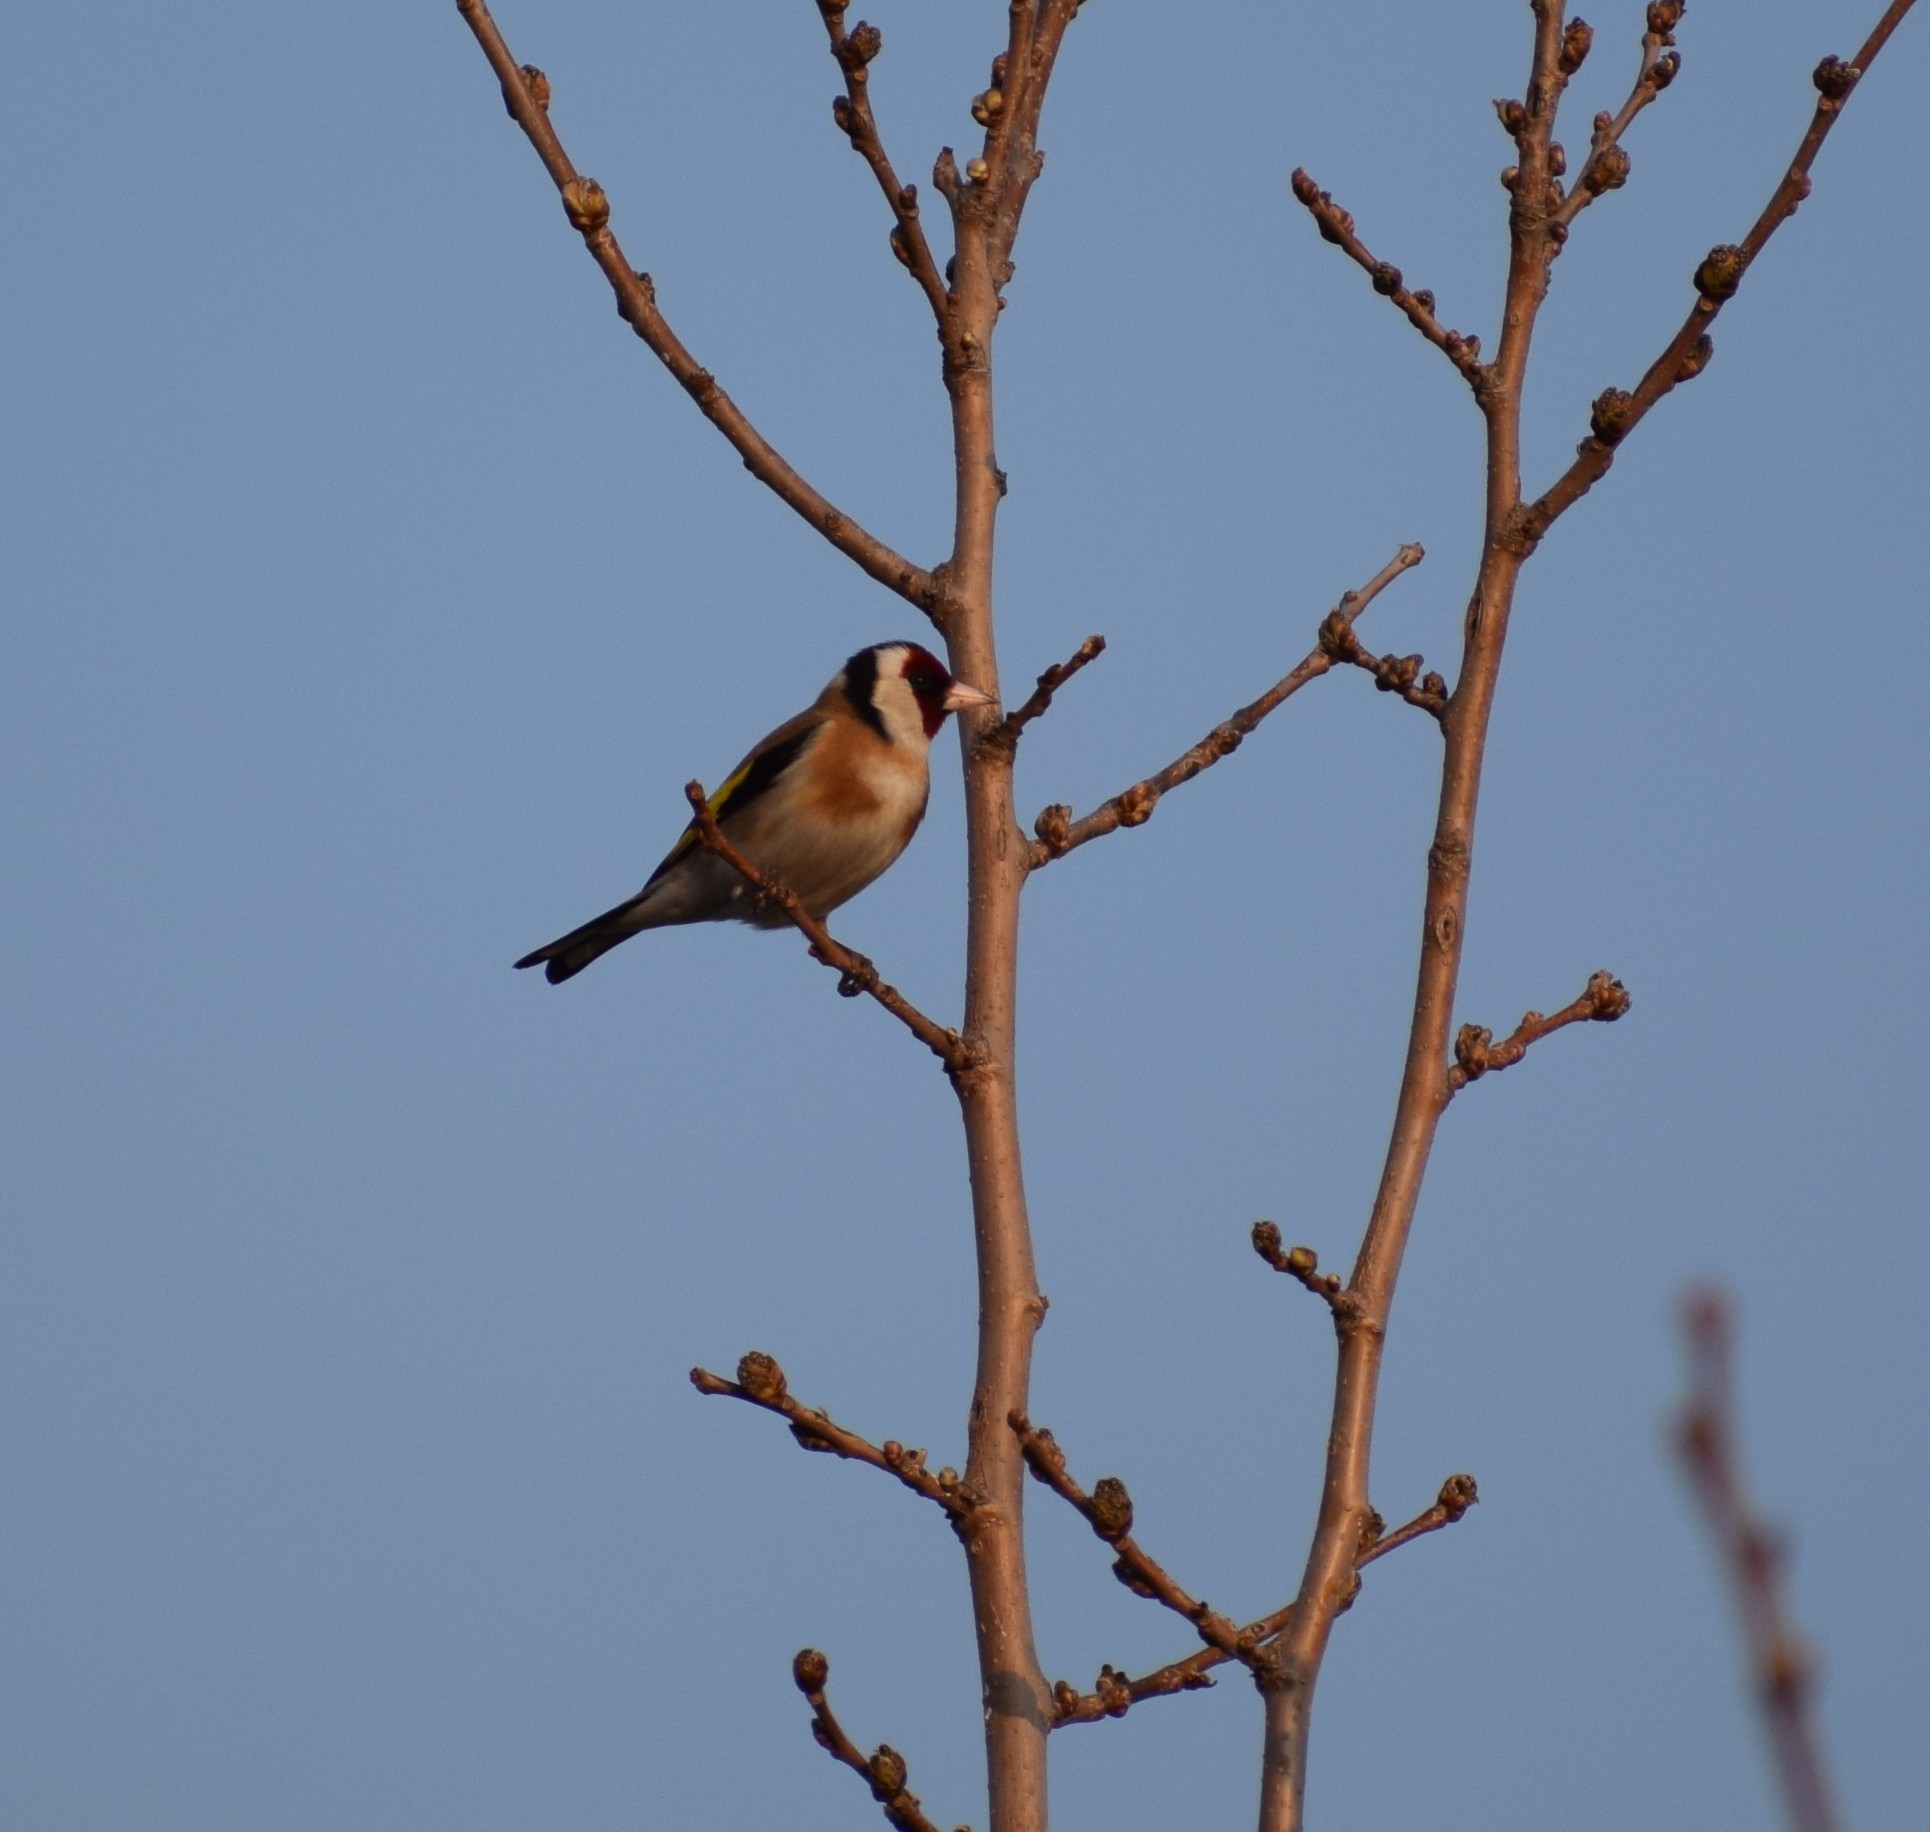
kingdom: Animalia
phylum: Chordata
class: Aves
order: Passeriformes
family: Fringillidae
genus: Carduelis
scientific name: Carduelis carduelis
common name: European goldfinch
